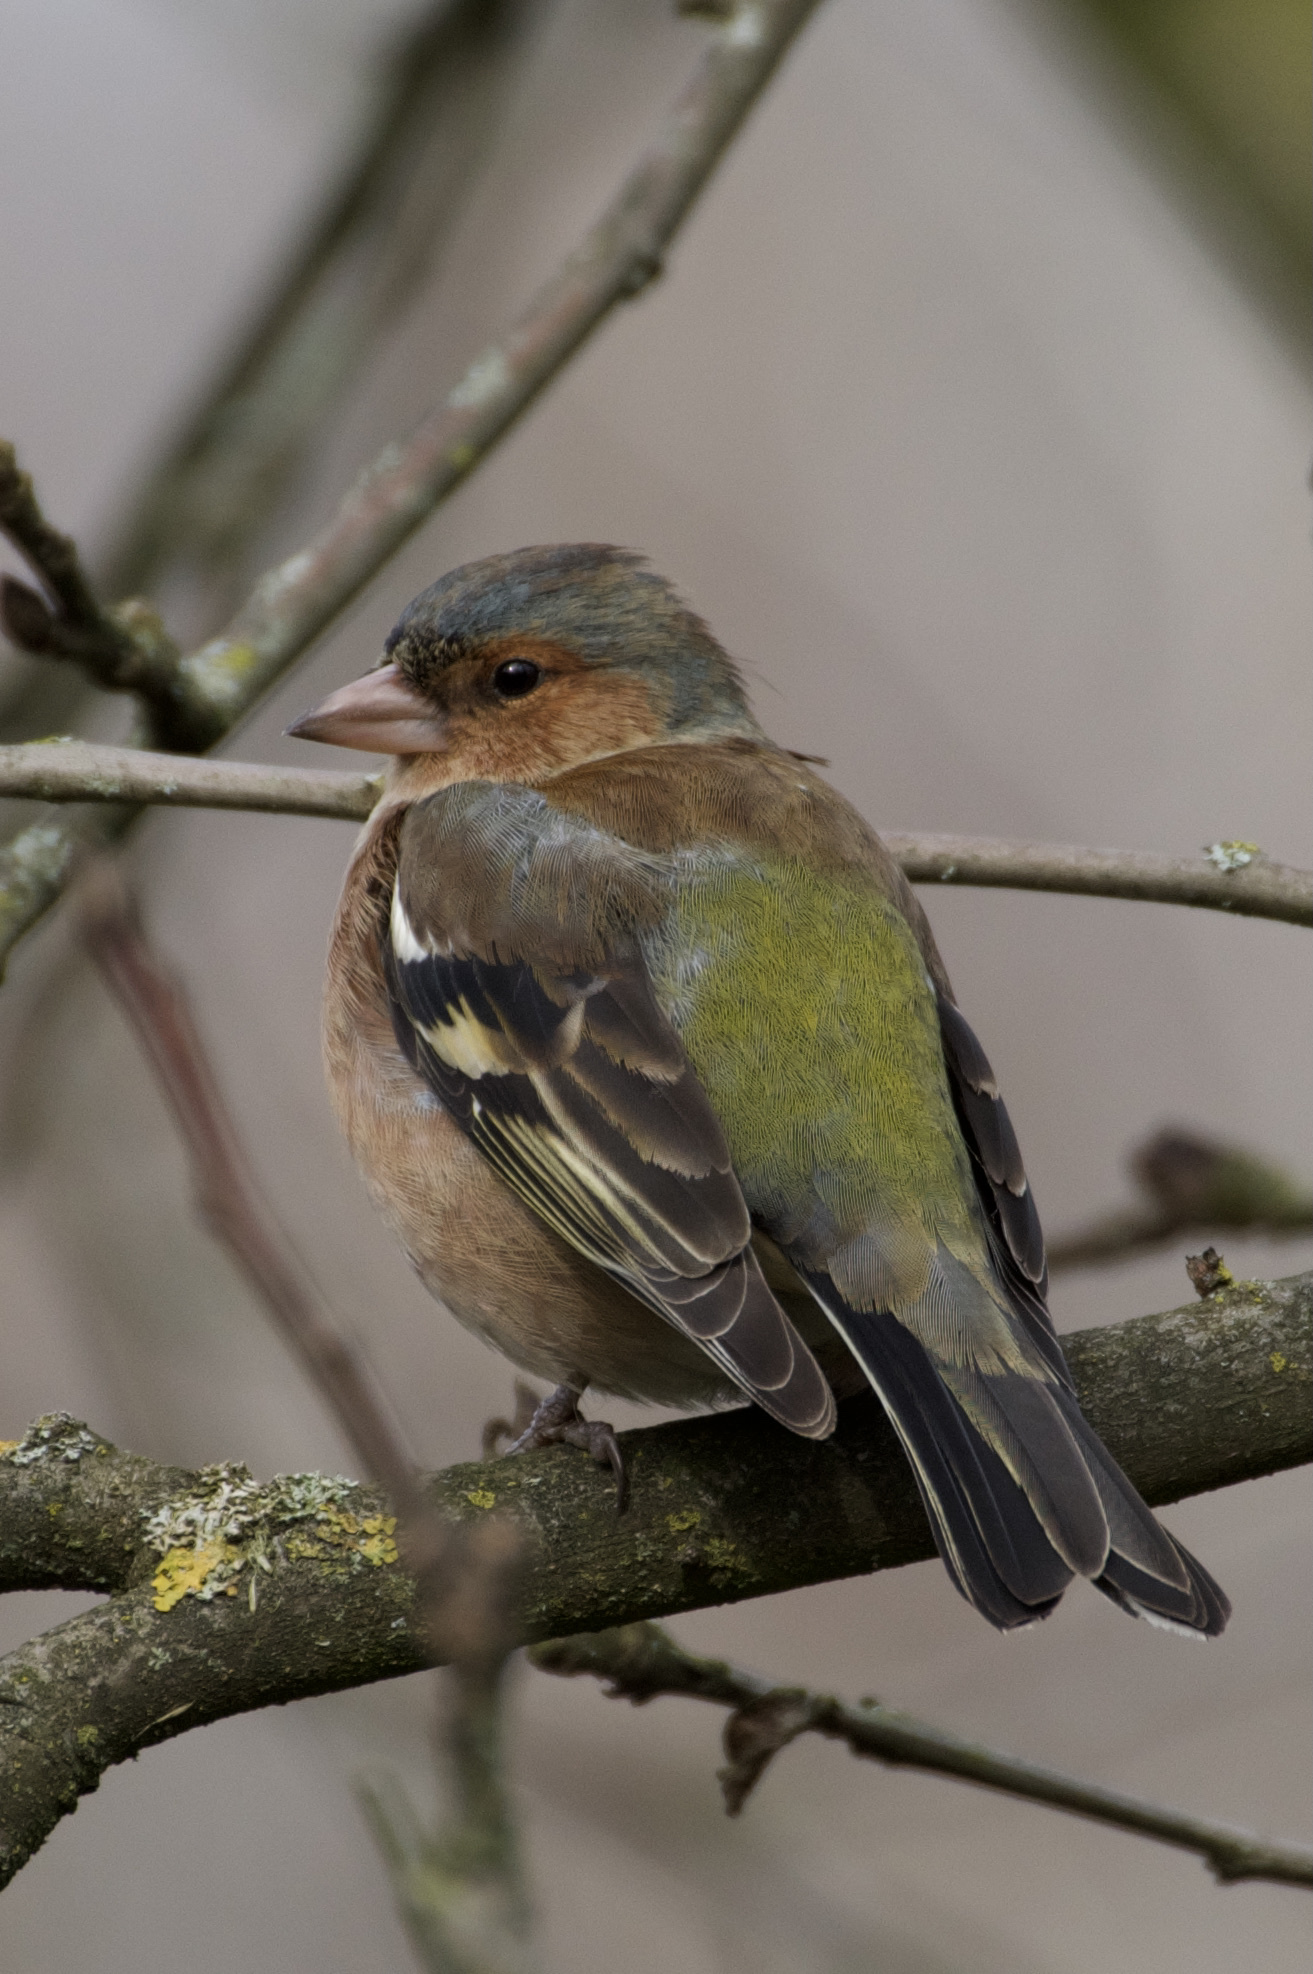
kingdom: Animalia
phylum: Chordata
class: Aves
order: Passeriformes
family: Fringillidae
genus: Fringilla
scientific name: Fringilla coelebs
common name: Common chaffinch
